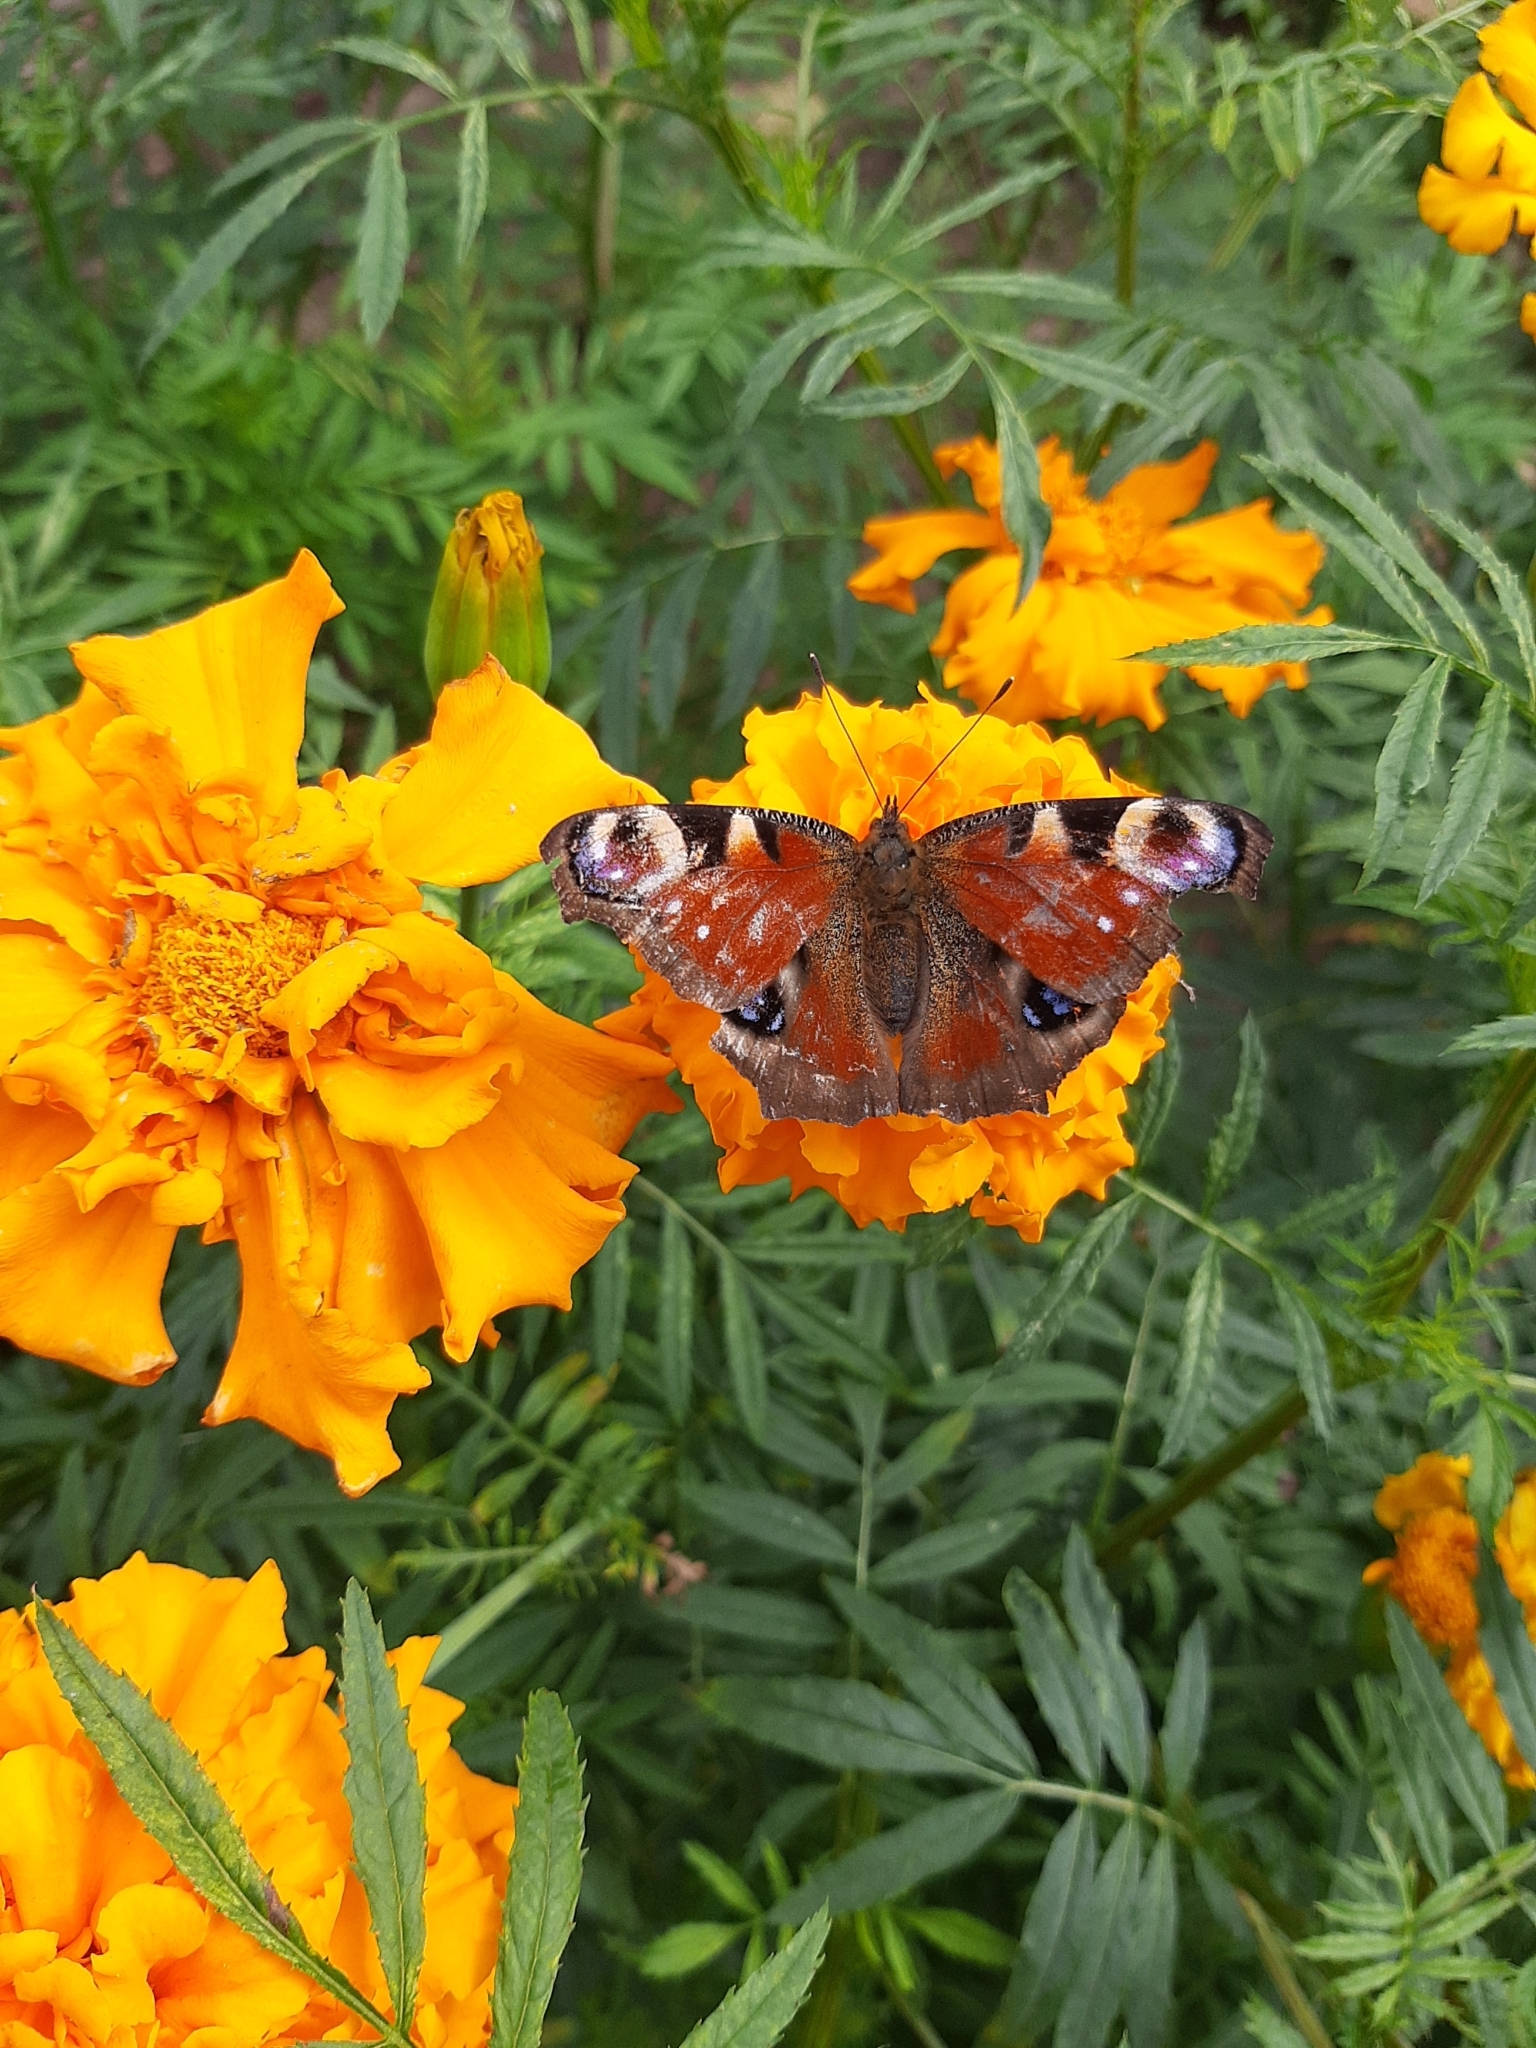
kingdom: Animalia
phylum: Arthropoda
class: Insecta
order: Lepidoptera
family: Nymphalidae
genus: Aglais
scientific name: Aglais io
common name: Peacock
